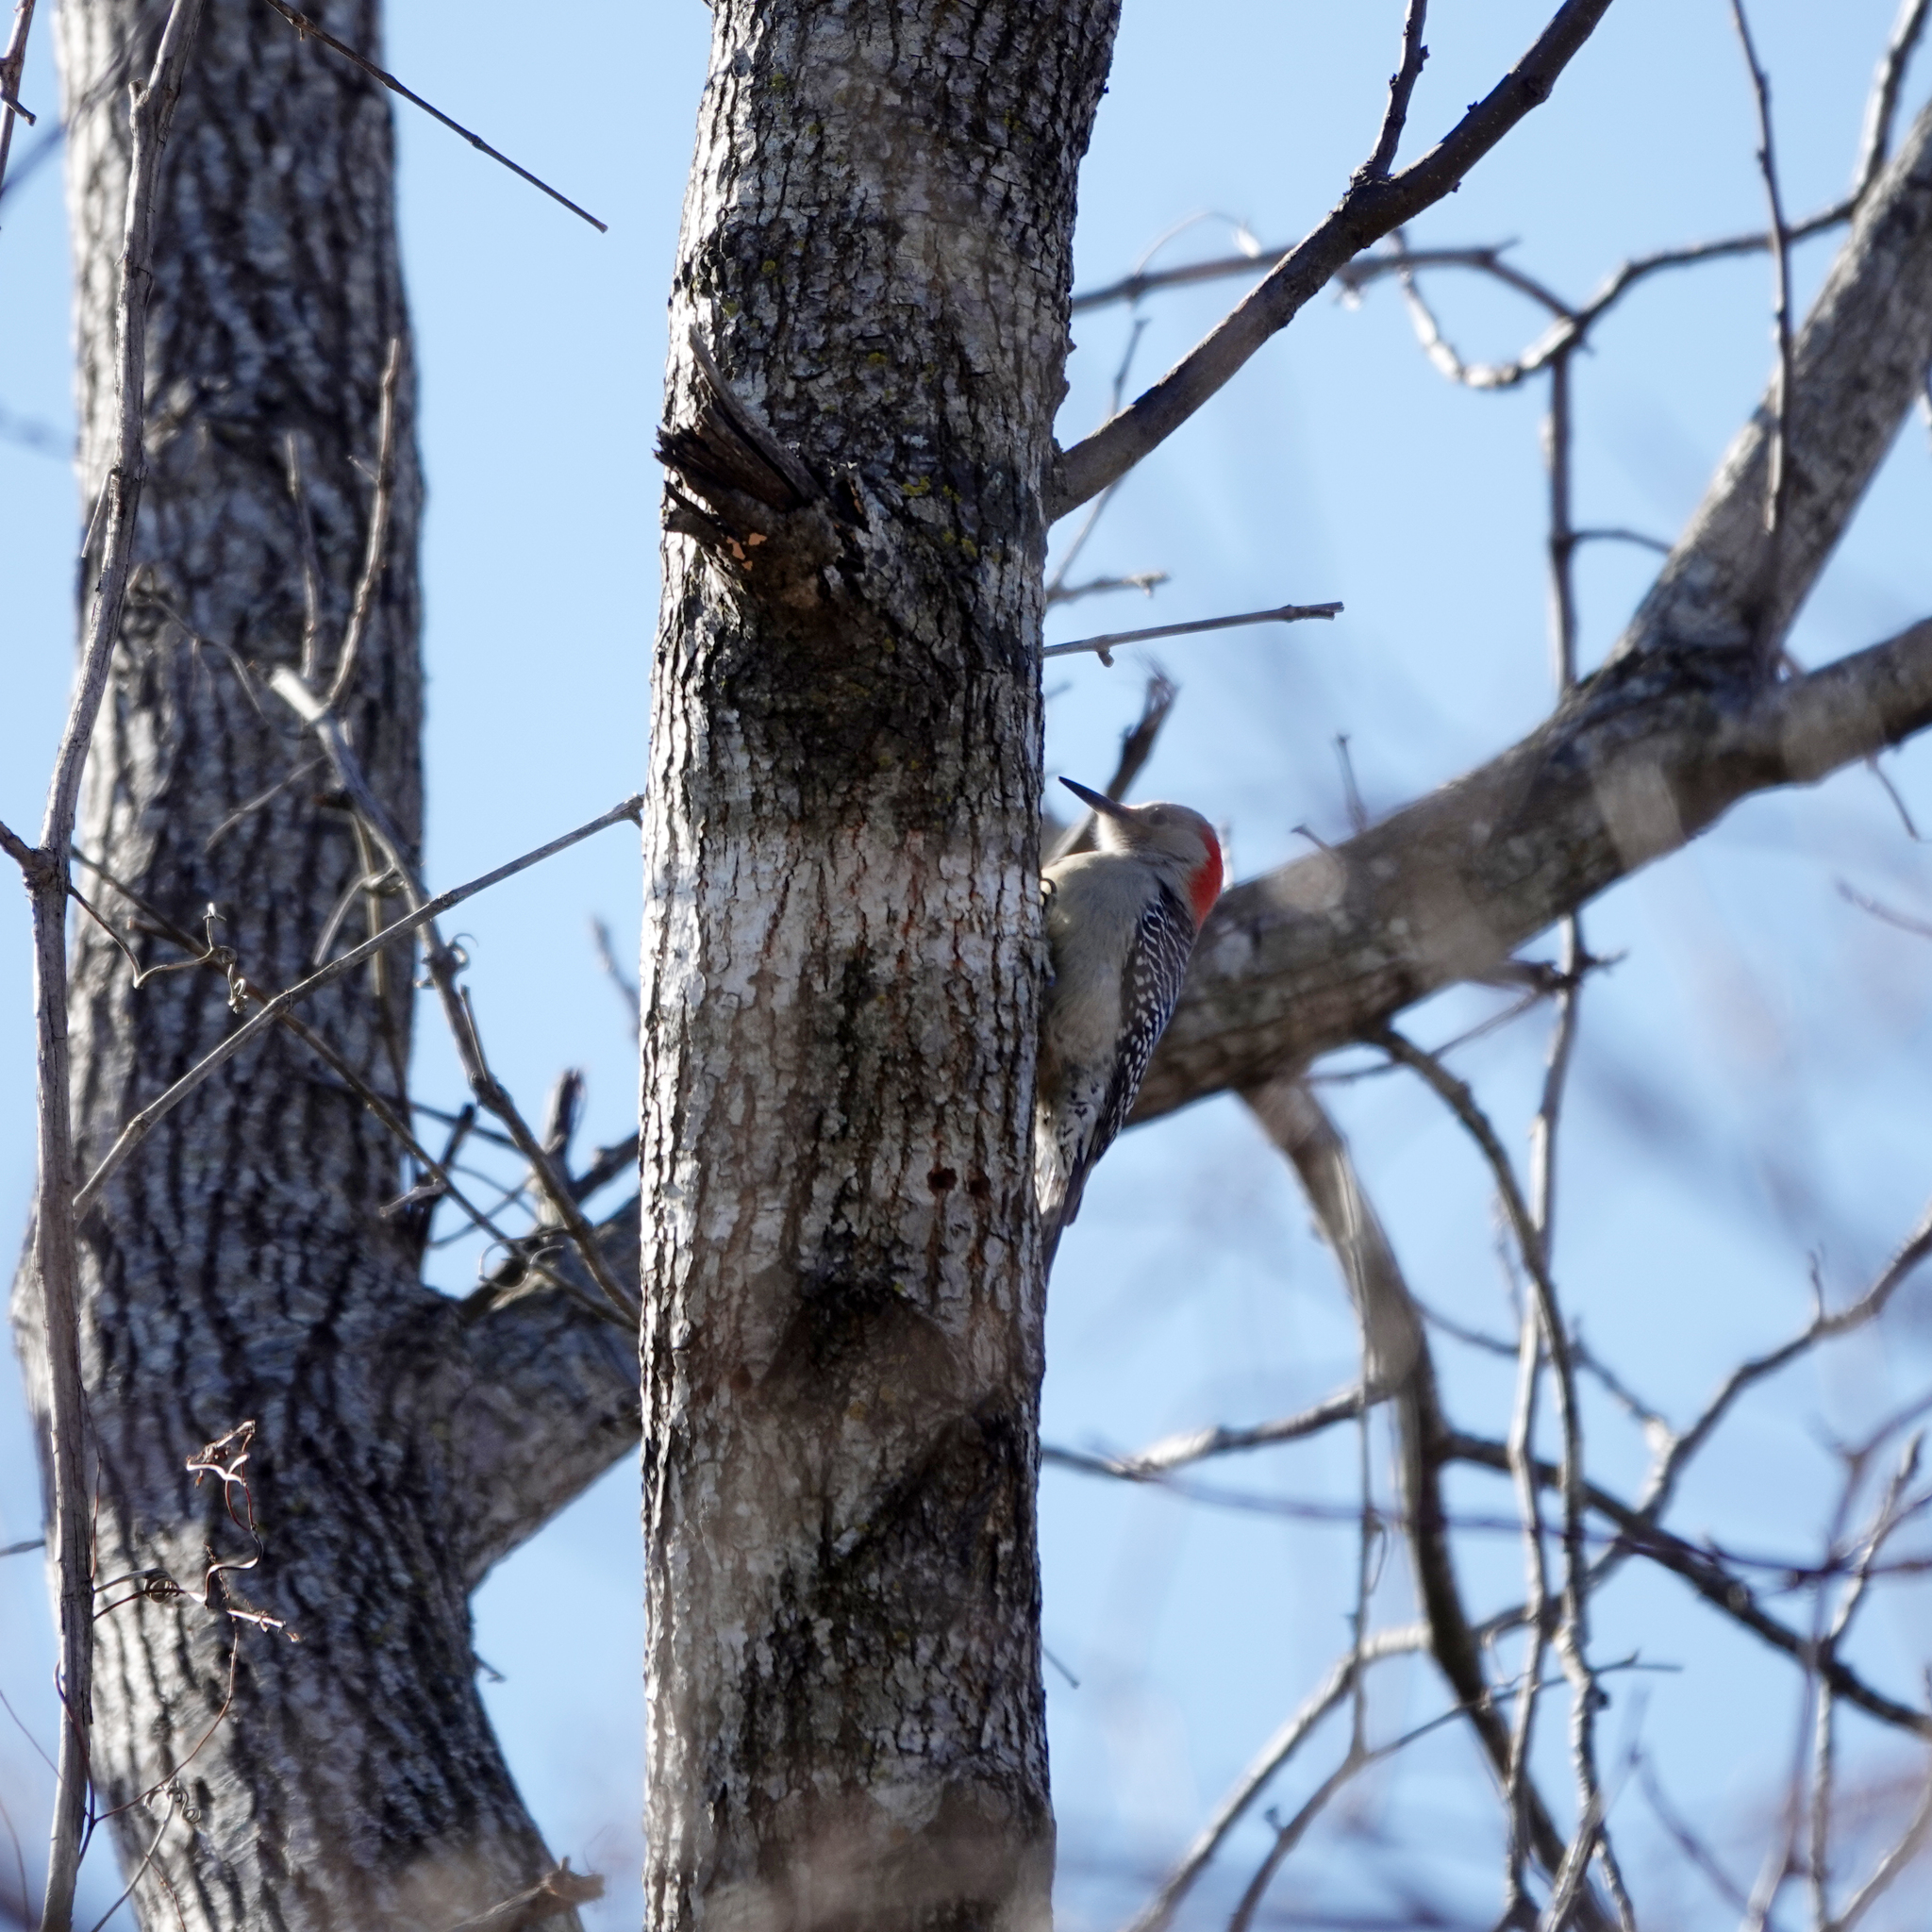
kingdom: Animalia
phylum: Chordata
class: Aves
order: Piciformes
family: Picidae
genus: Melanerpes
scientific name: Melanerpes carolinus
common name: Red-bellied woodpecker
